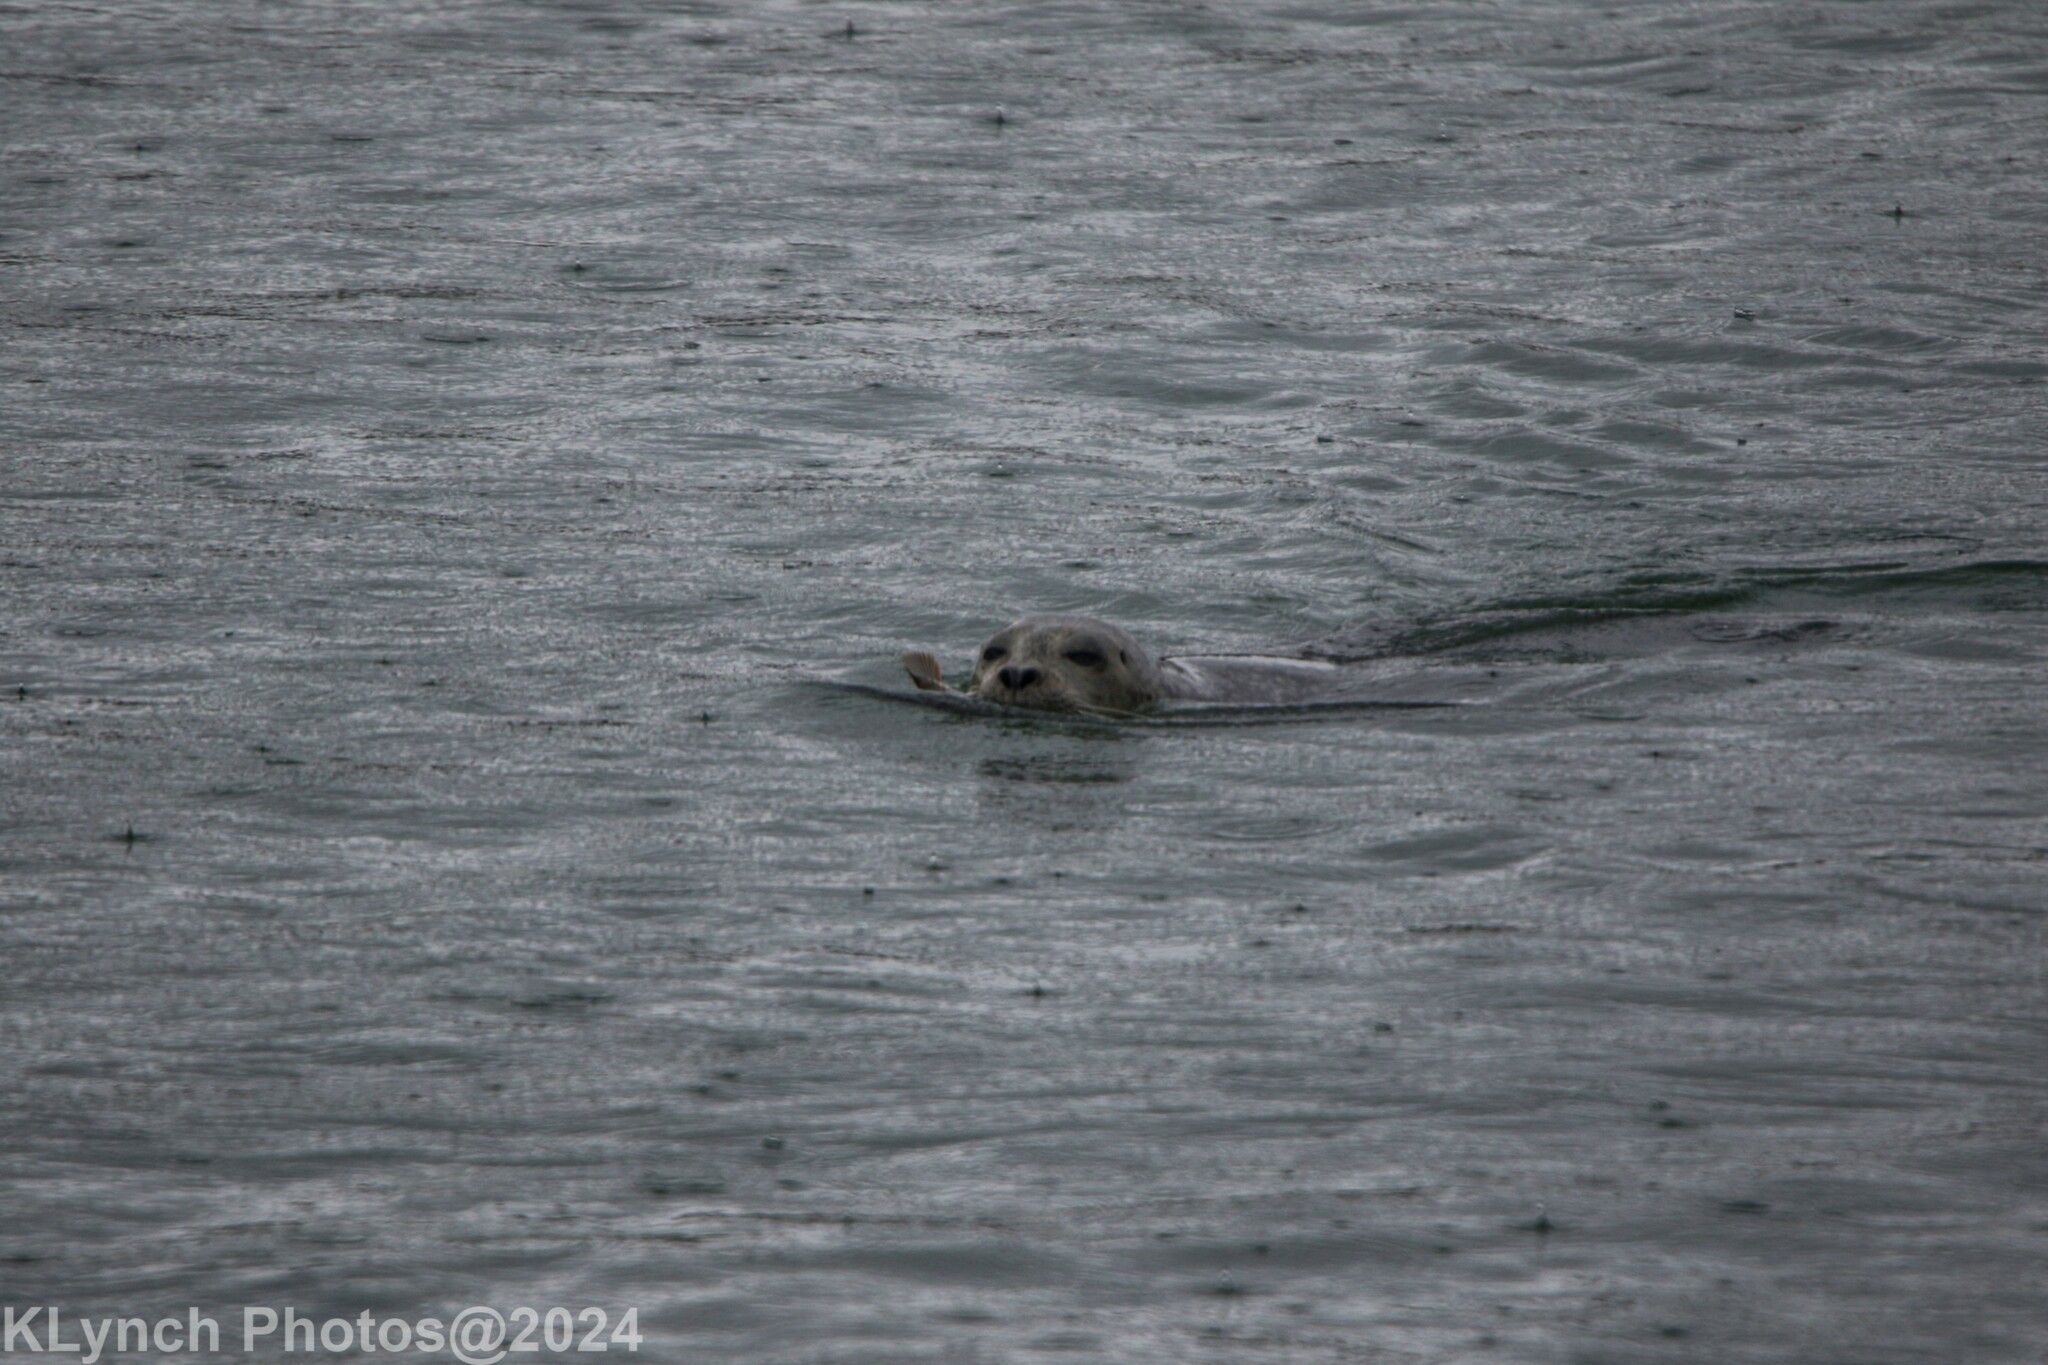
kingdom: Animalia
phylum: Chordata
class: Mammalia
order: Carnivora
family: Phocidae
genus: Phoca
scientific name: Phoca vitulina
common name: Harbor seal
